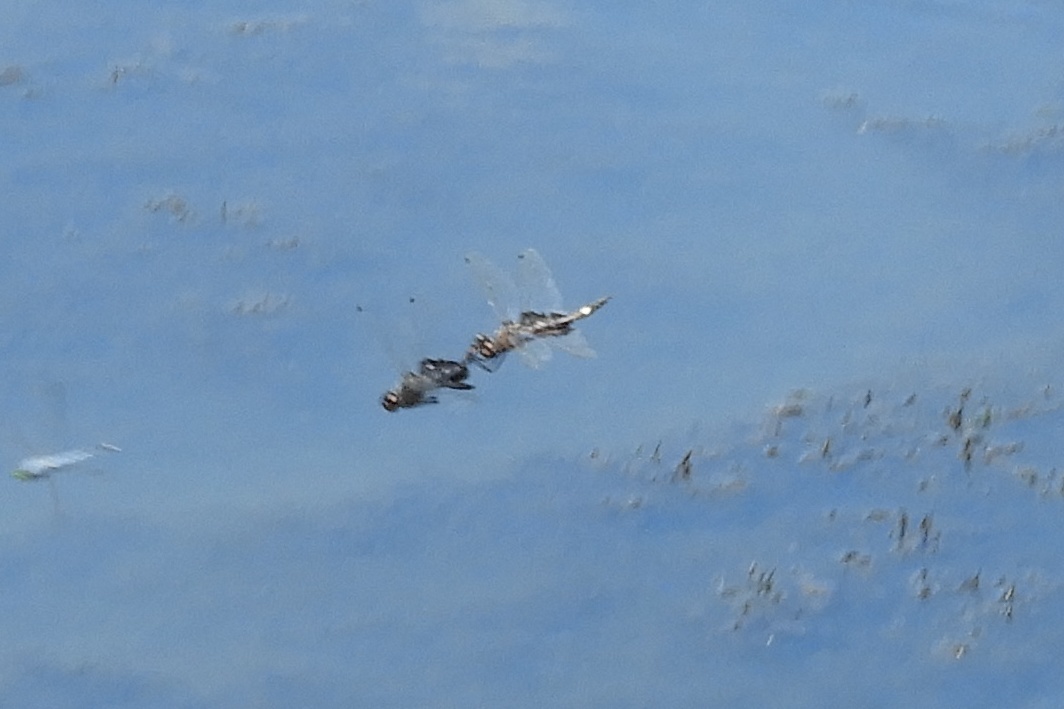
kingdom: Animalia
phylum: Arthropoda
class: Insecta
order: Odonata
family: Libellulidae
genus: Tramea
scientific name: Tramea lacerata
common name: Black saddlebags
